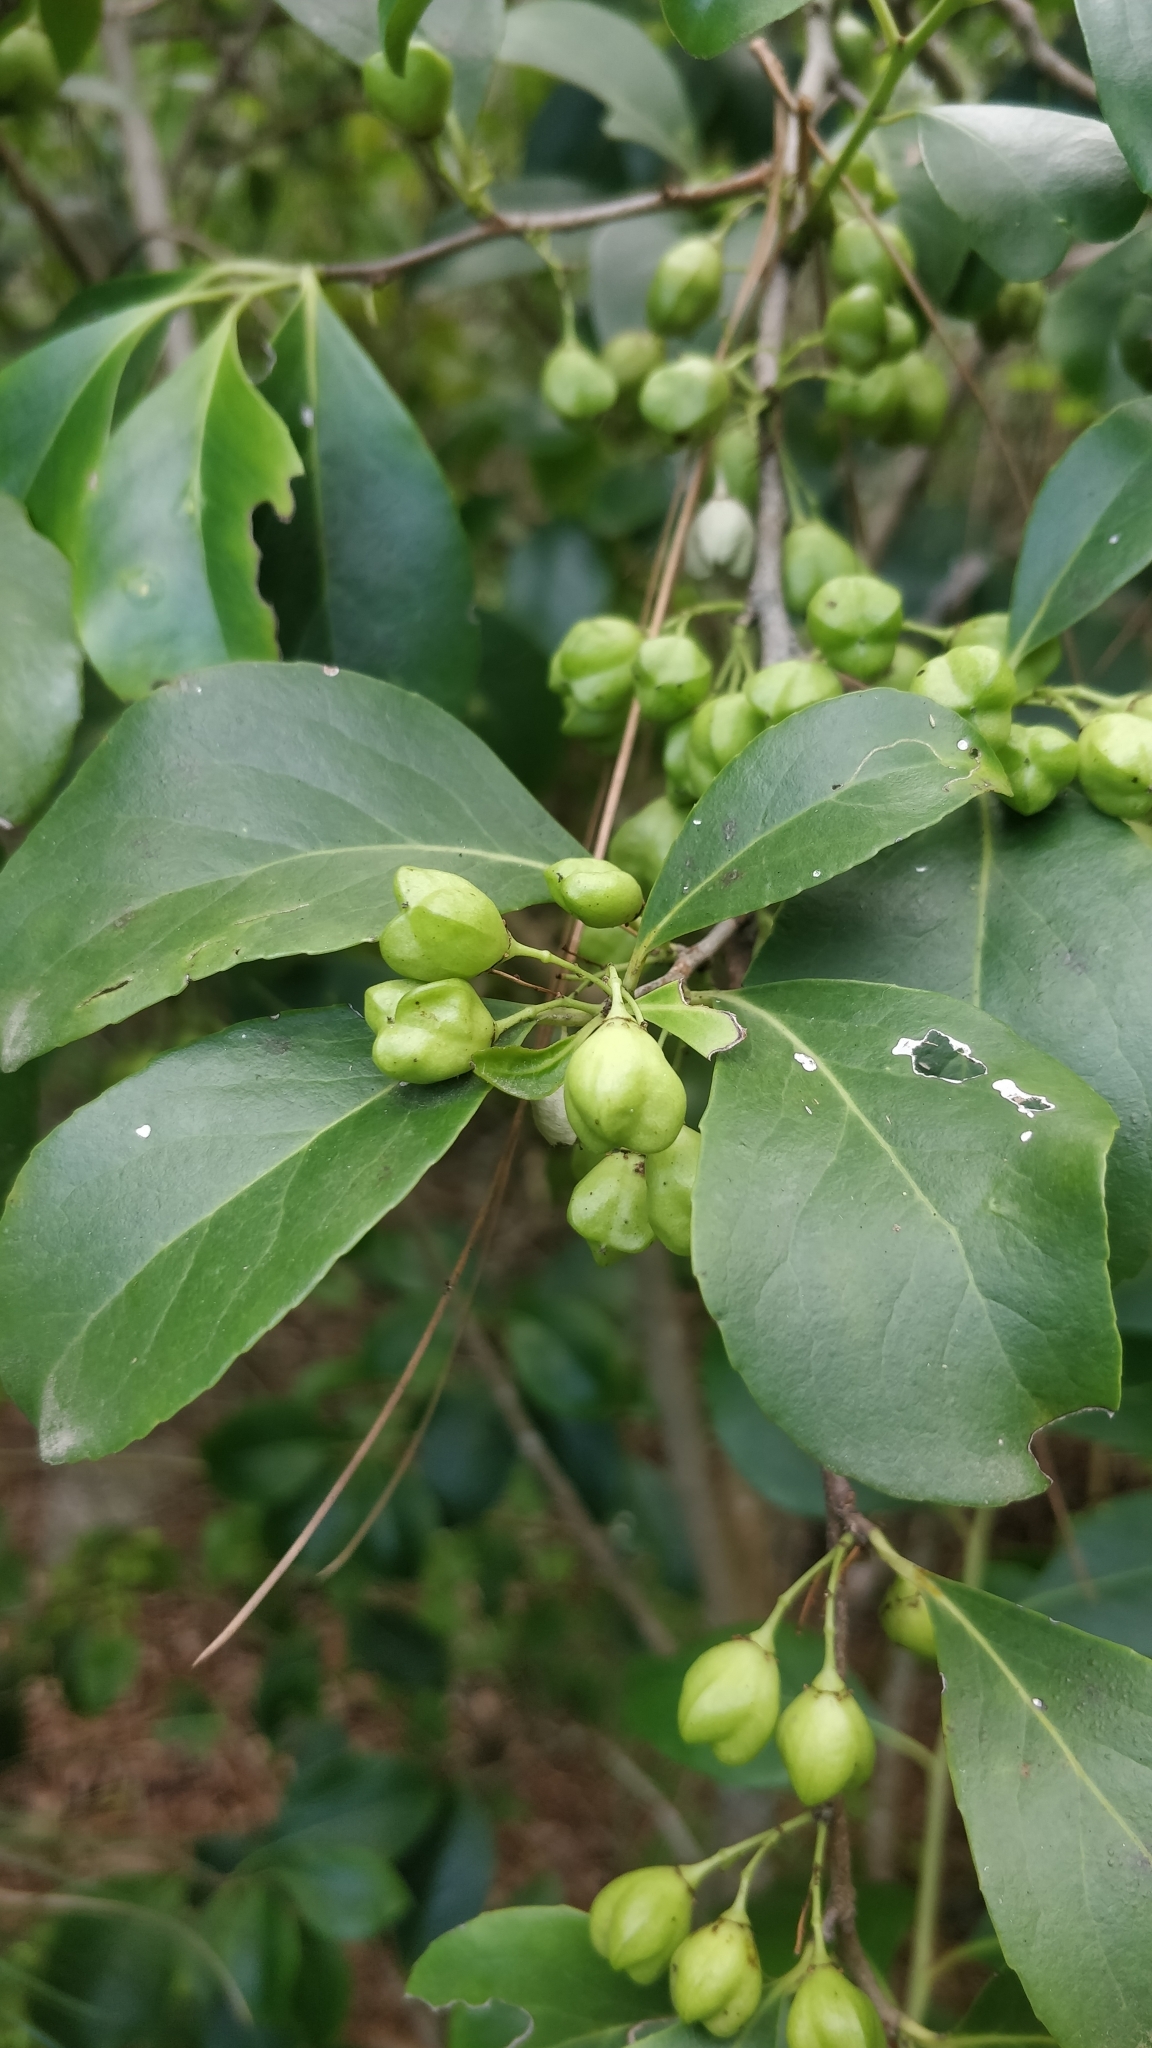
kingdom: Plantae
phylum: Tracheophyta
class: Magnoliopsida
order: Celastrales
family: Celastraceae
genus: Gymnosporia
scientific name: Gymnosporia cassinoides
